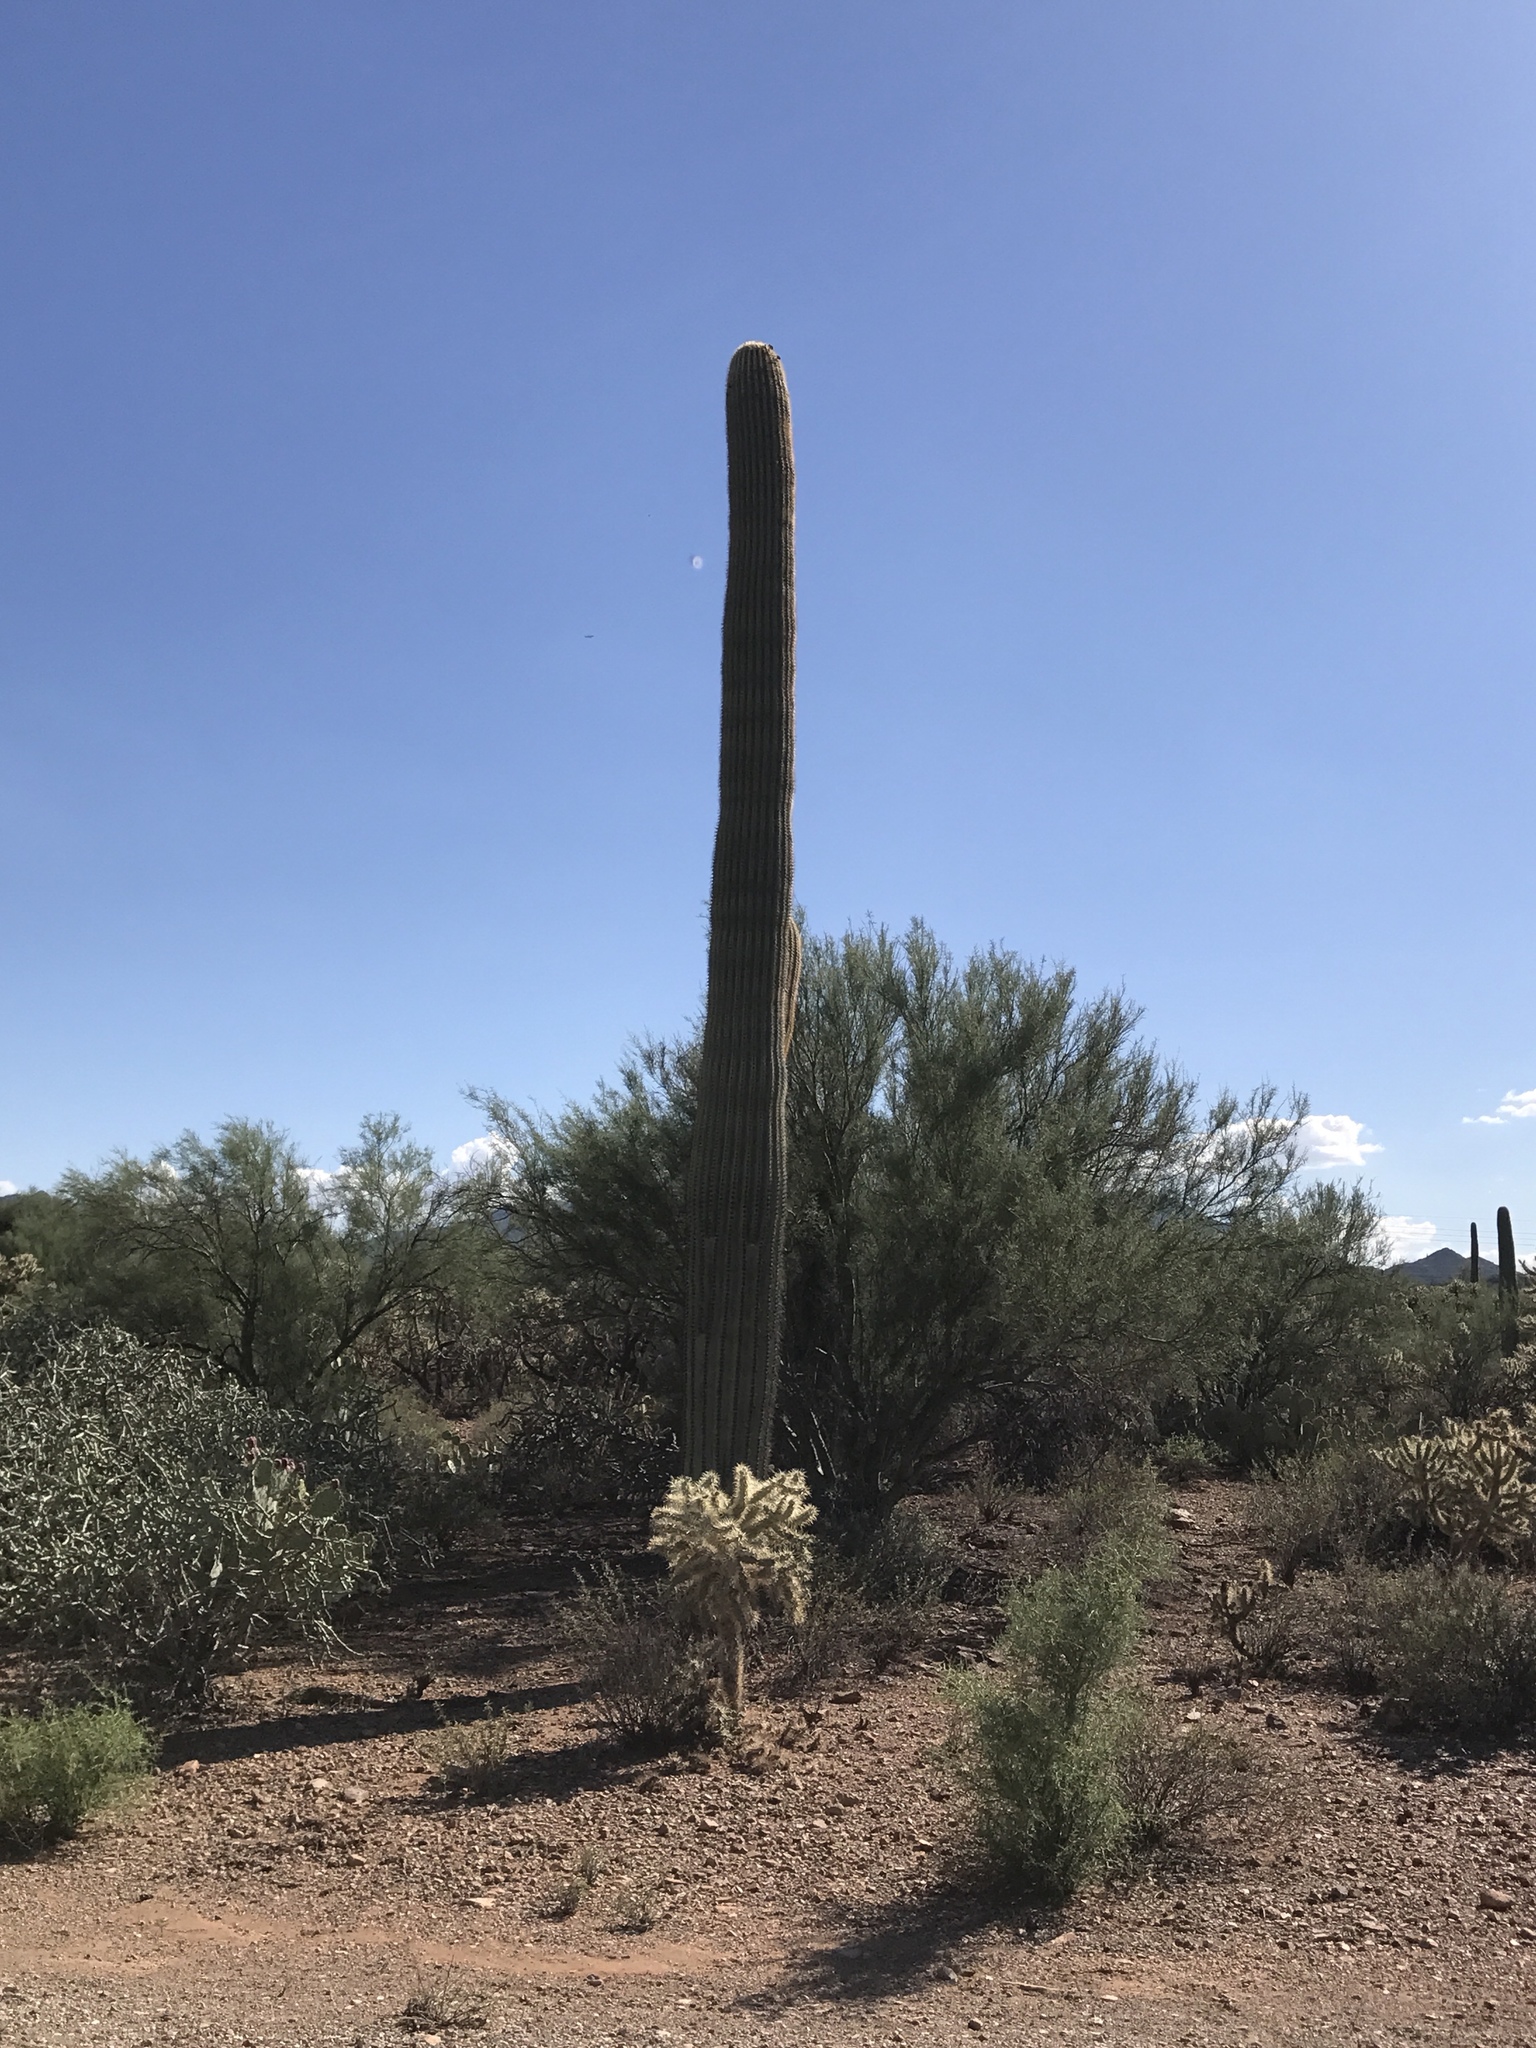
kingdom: Plantae
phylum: Tracheophyta
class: Magnoliopsida
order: Caryophyllales
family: Cactaceae
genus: Carnegiea
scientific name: Carnegiea gigantea
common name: Saguaro
